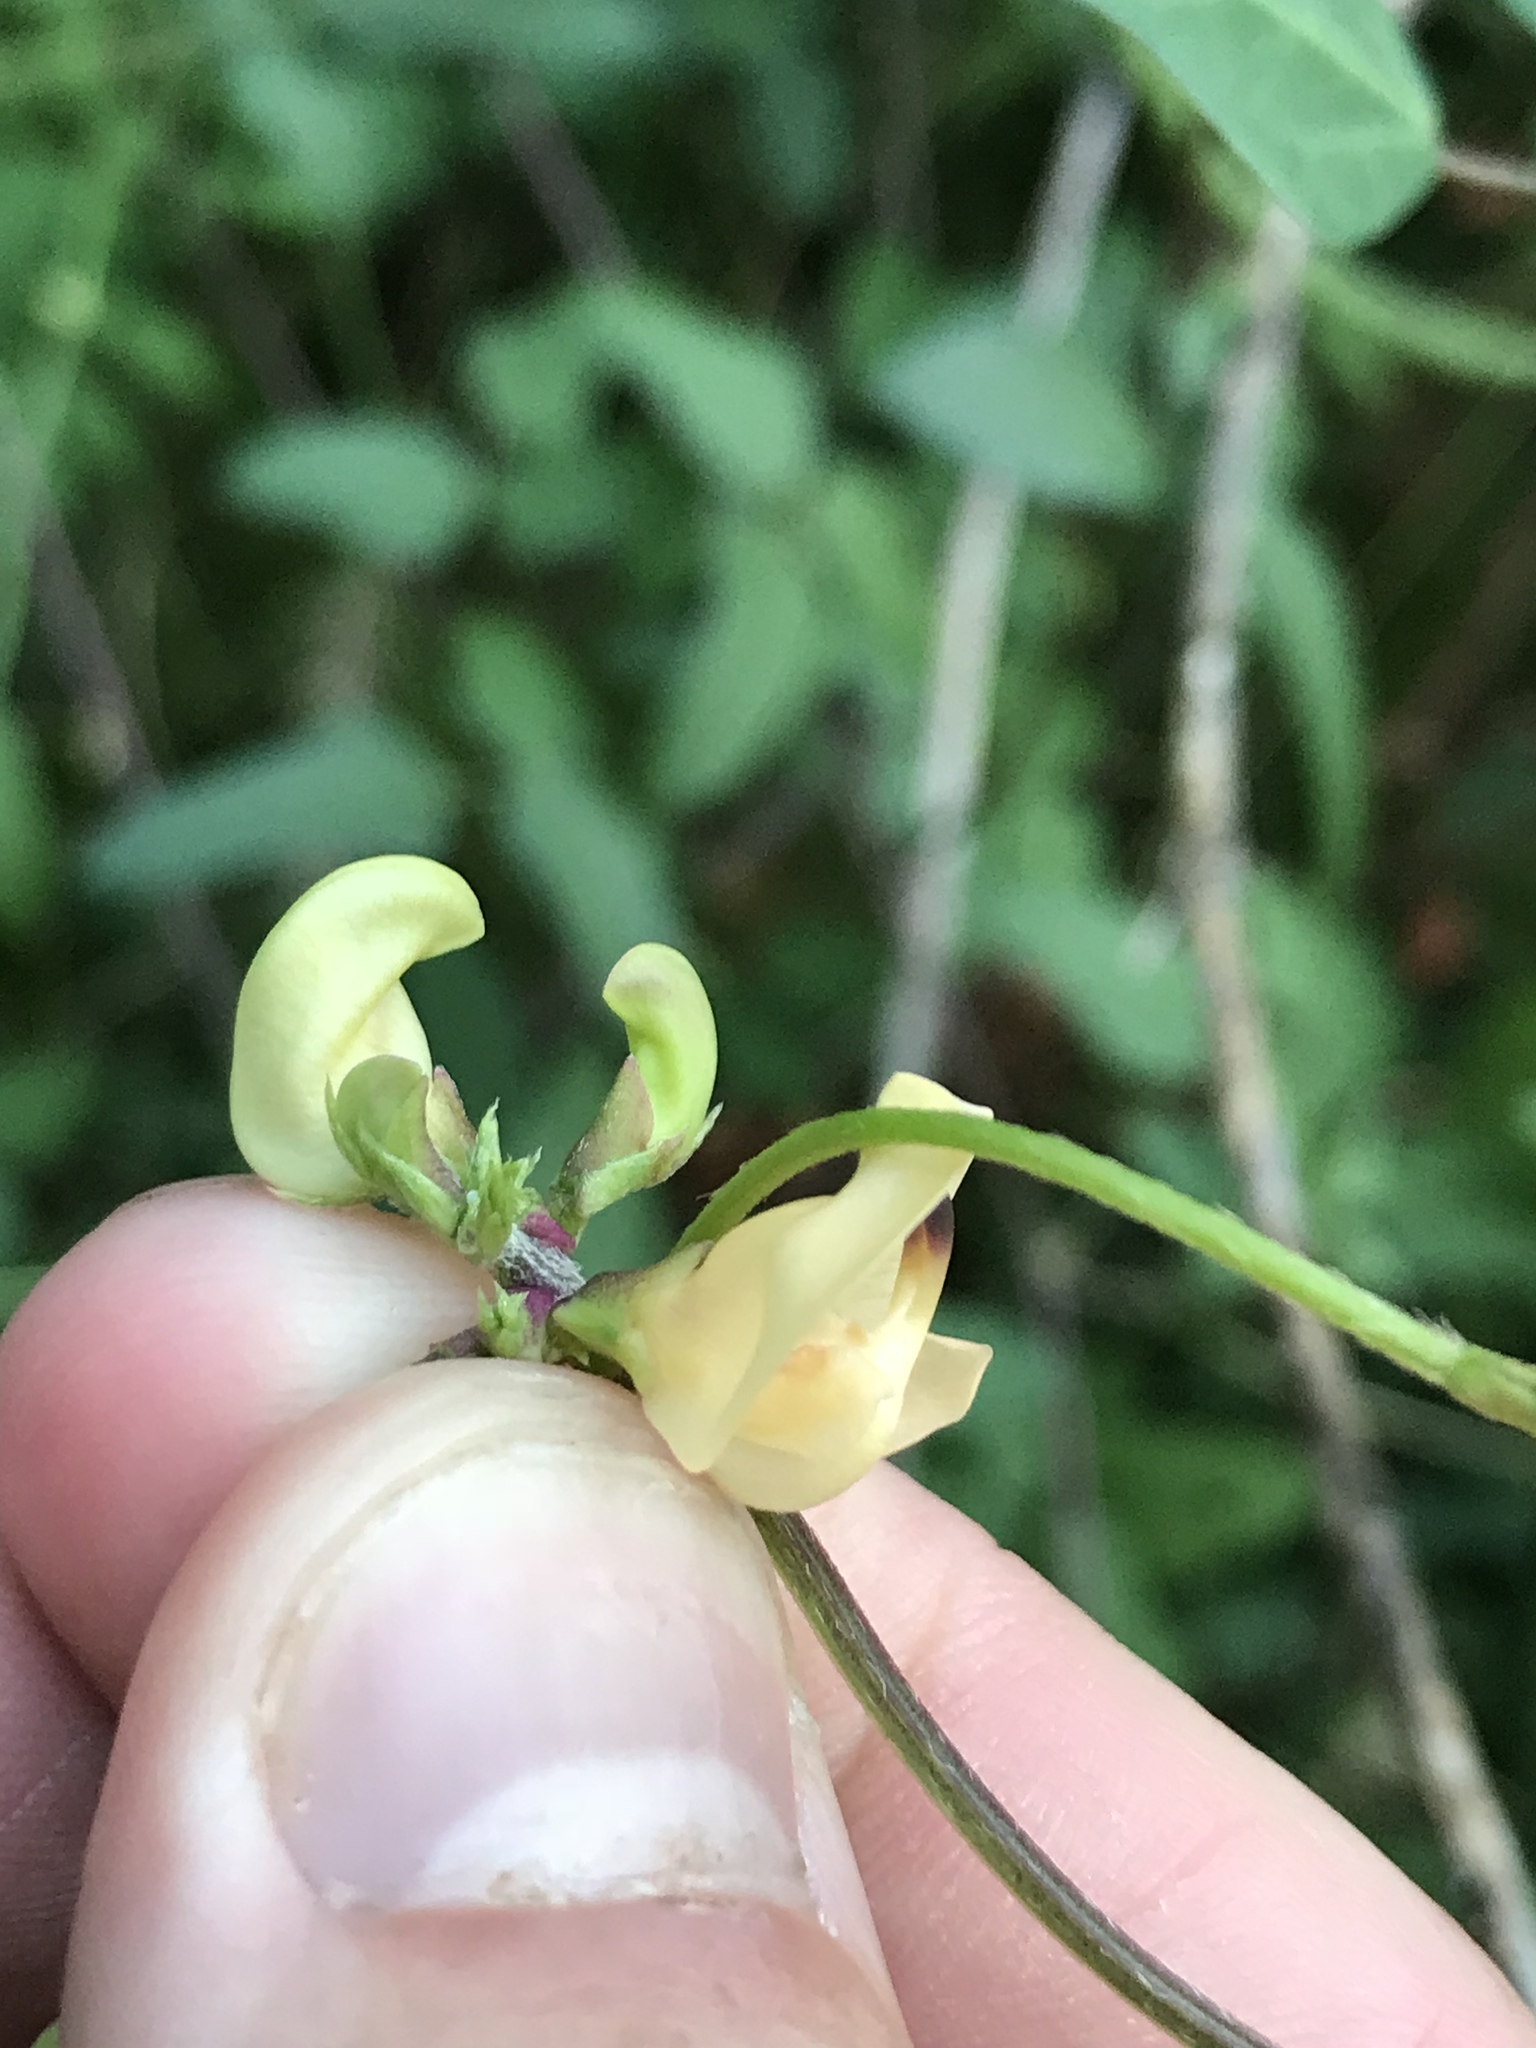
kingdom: Plantae
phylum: Tracheophyta
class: Magnoliopsida
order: Fabales
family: Fabaceae
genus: Strophostyles
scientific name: Strophostyles helvola
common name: Trailing wild bean
